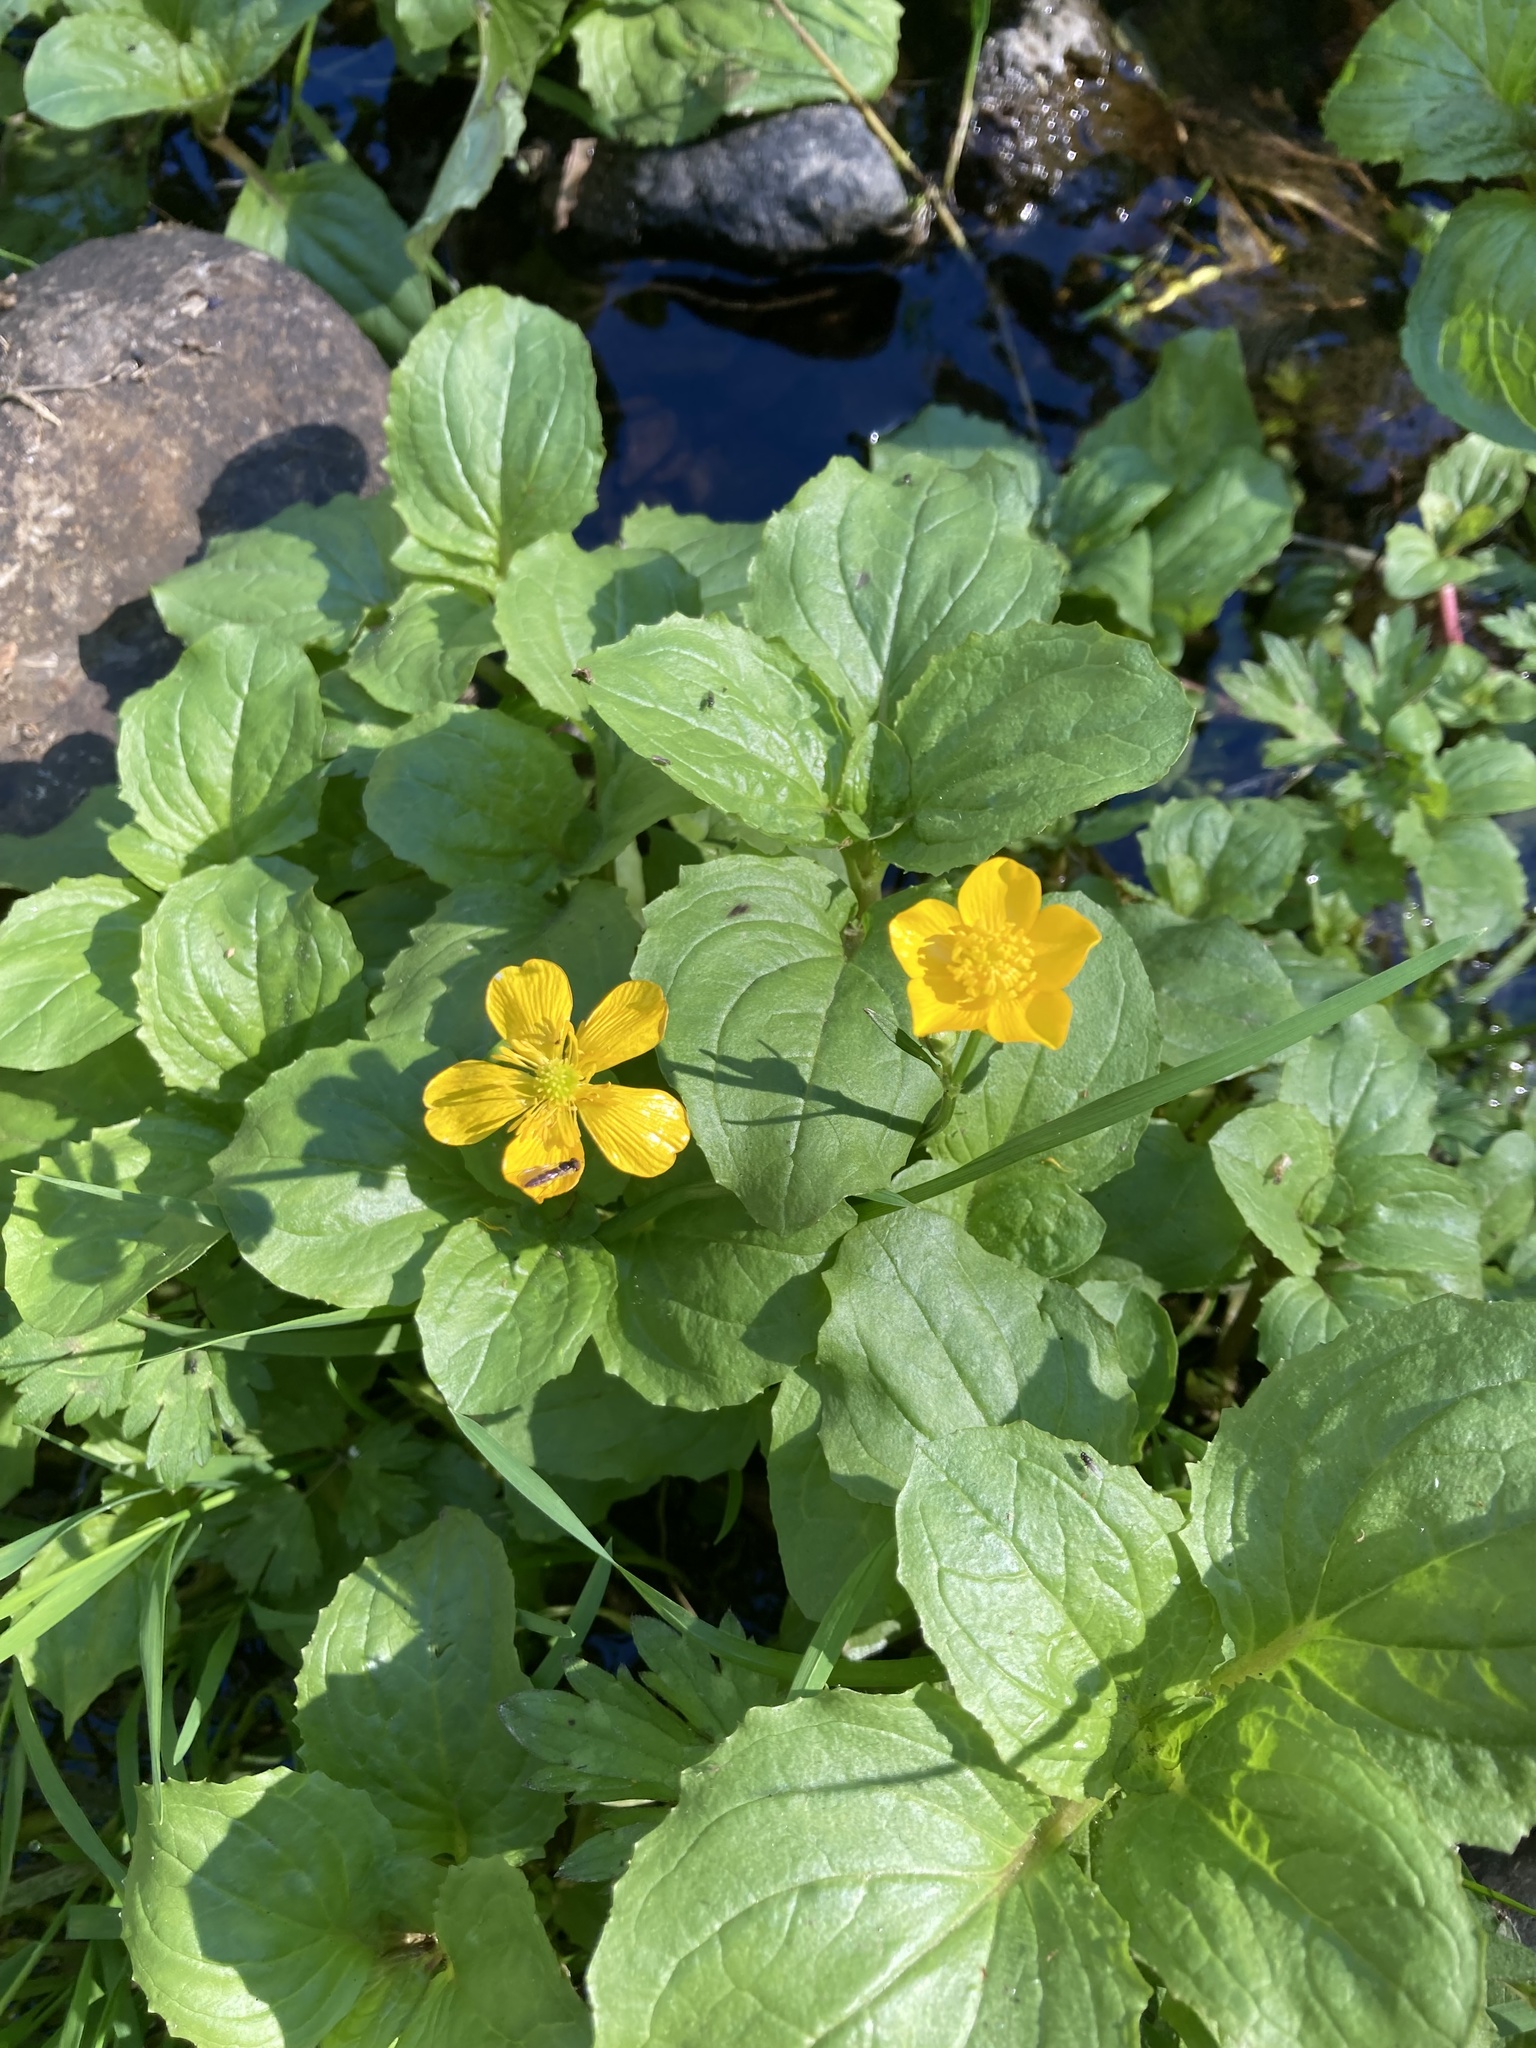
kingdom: Plantae
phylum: Tracheophyta
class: Magnoliopsida
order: Lamiales
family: Phrymaceae
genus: Erythranthe
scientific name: Erythranthe guttata
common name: Monkeyflower
